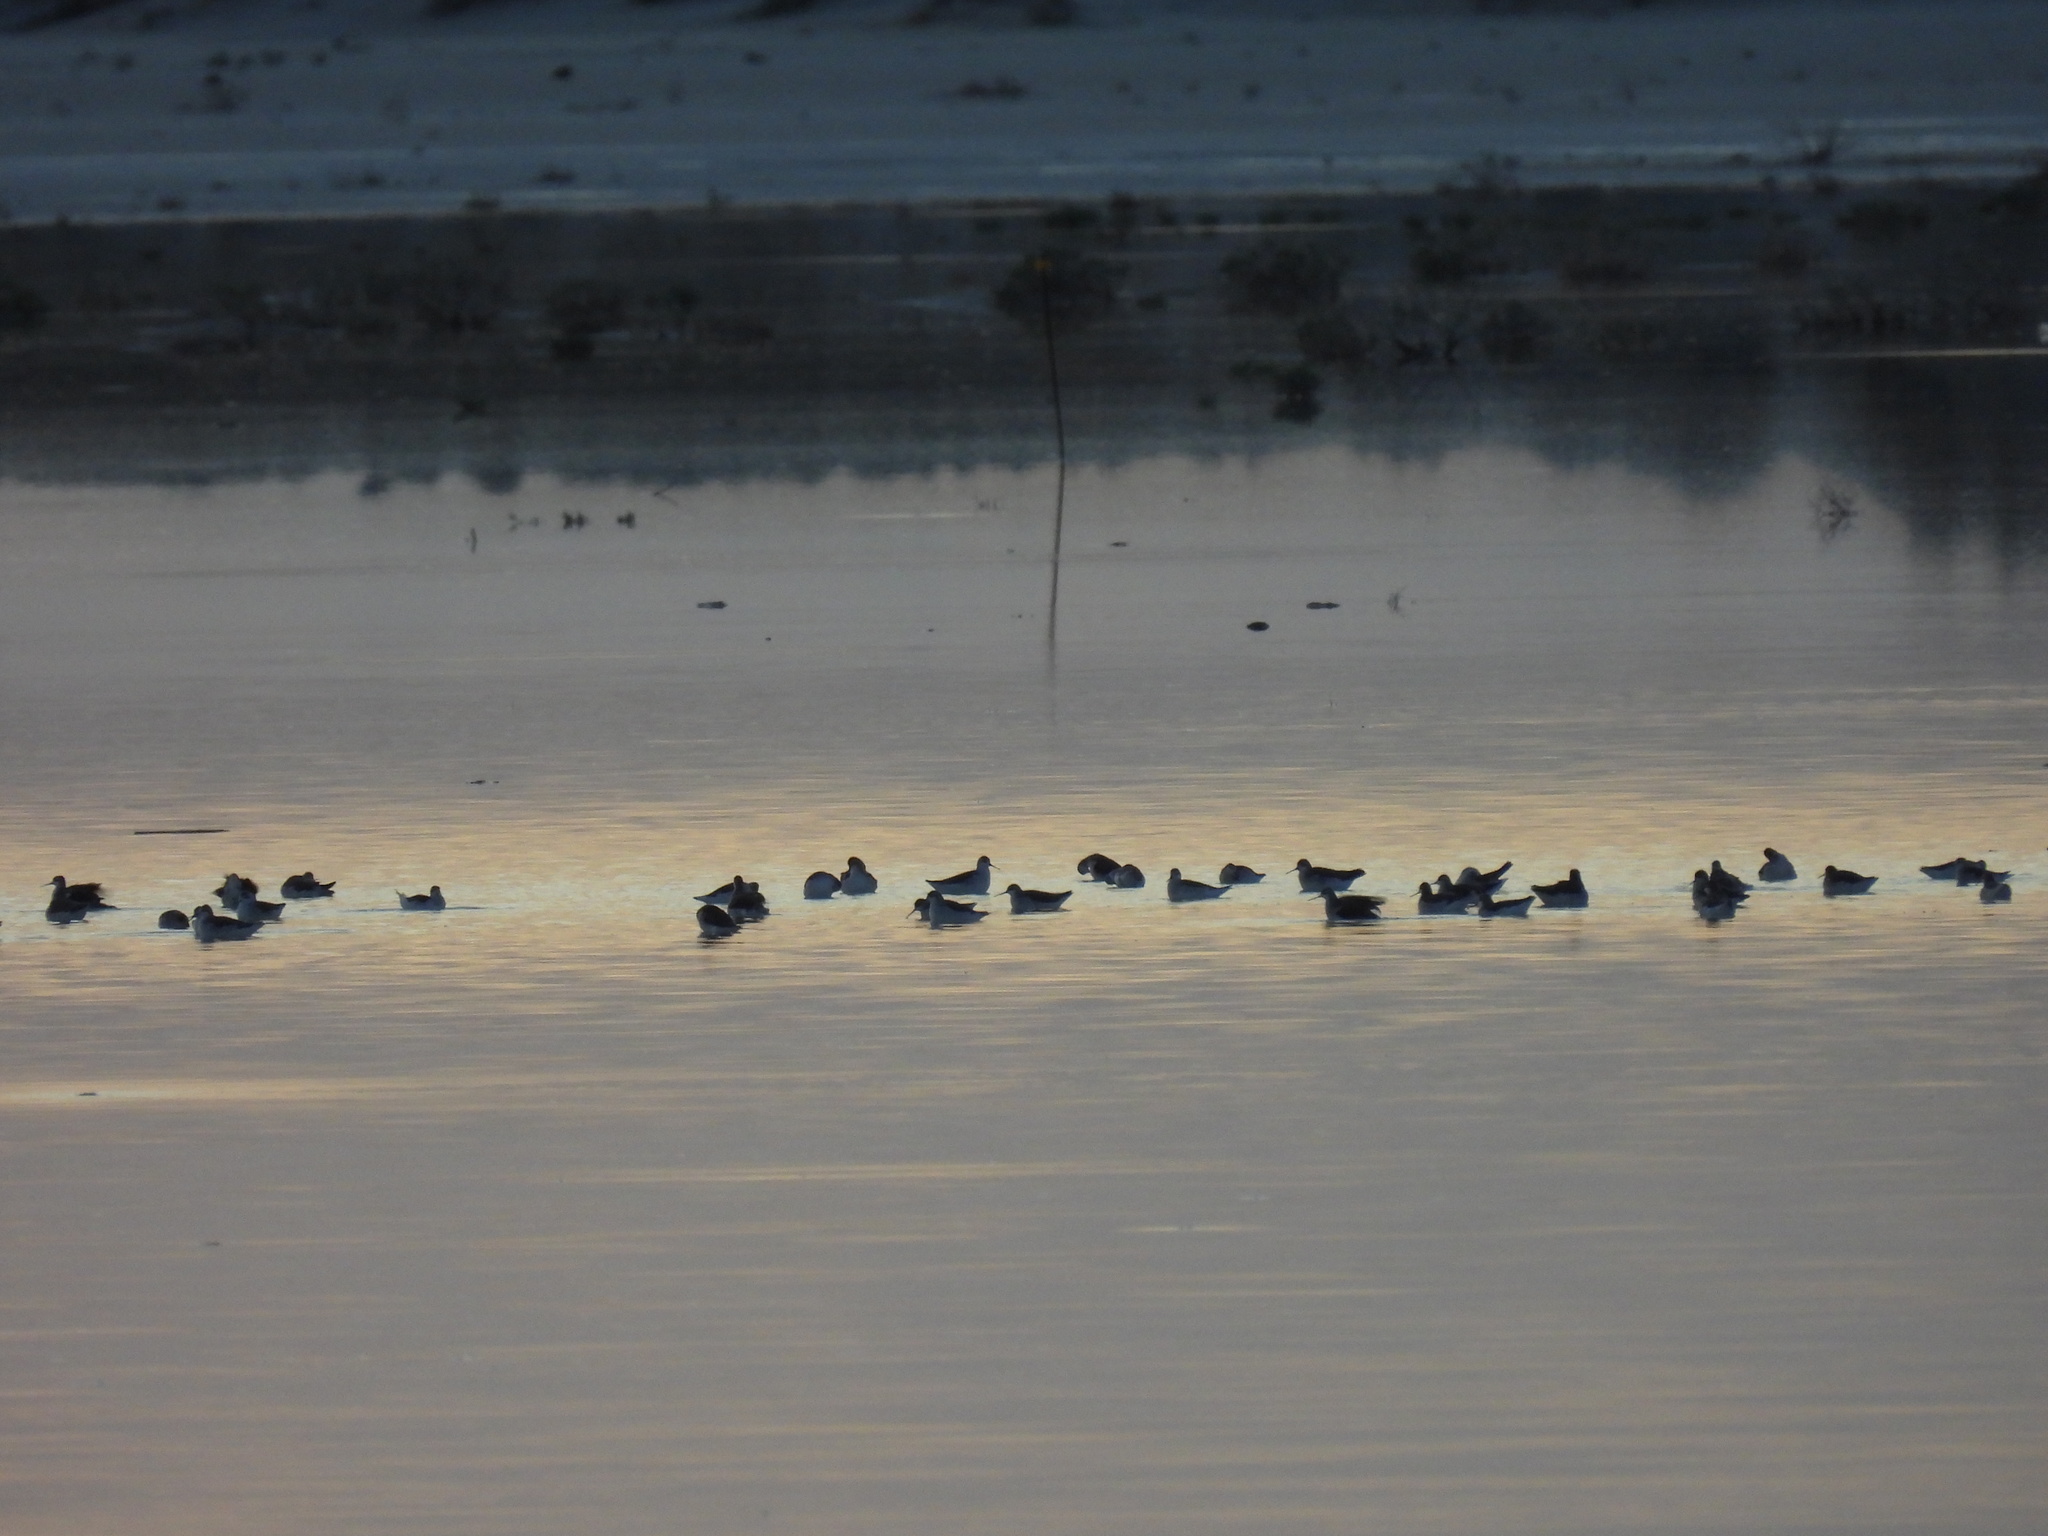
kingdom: Animalia
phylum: Chordata
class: Aves
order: Charadriiformes
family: Scolopacidae
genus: Phalaropus
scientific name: Phalaropus tricolor
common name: Wilson's phalarope
